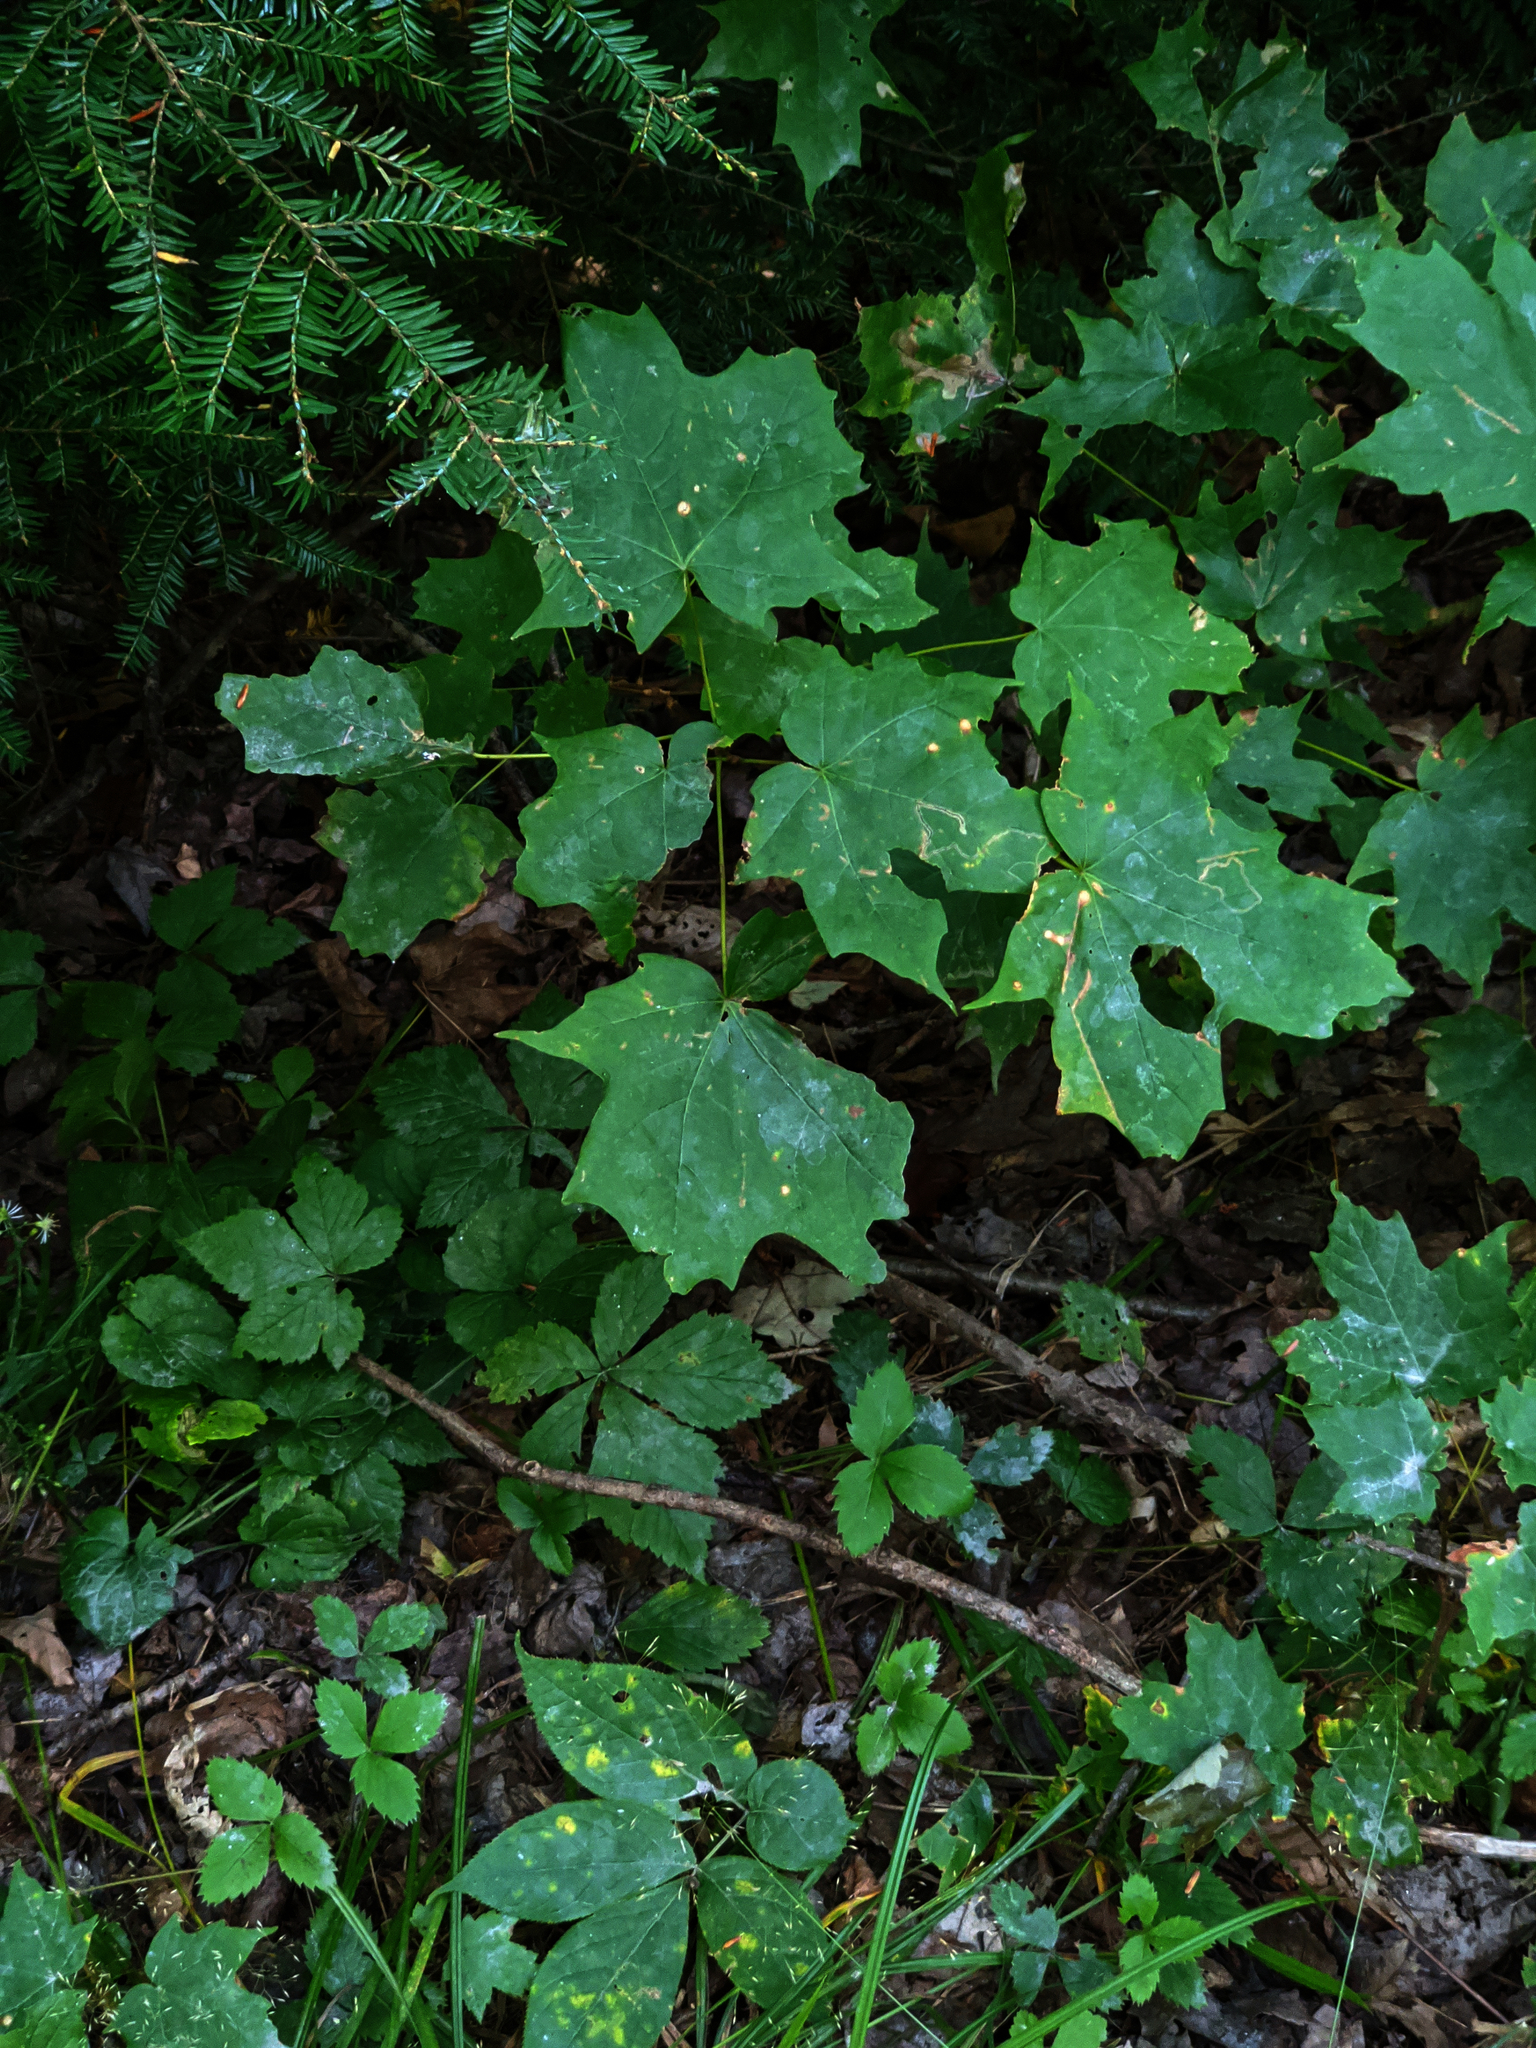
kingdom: Plantae
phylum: Tracheophyta
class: Magnoliopsida
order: Sapindales
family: Sapindaceae
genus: Acer
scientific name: Acer saccharum
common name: Sugar maple
